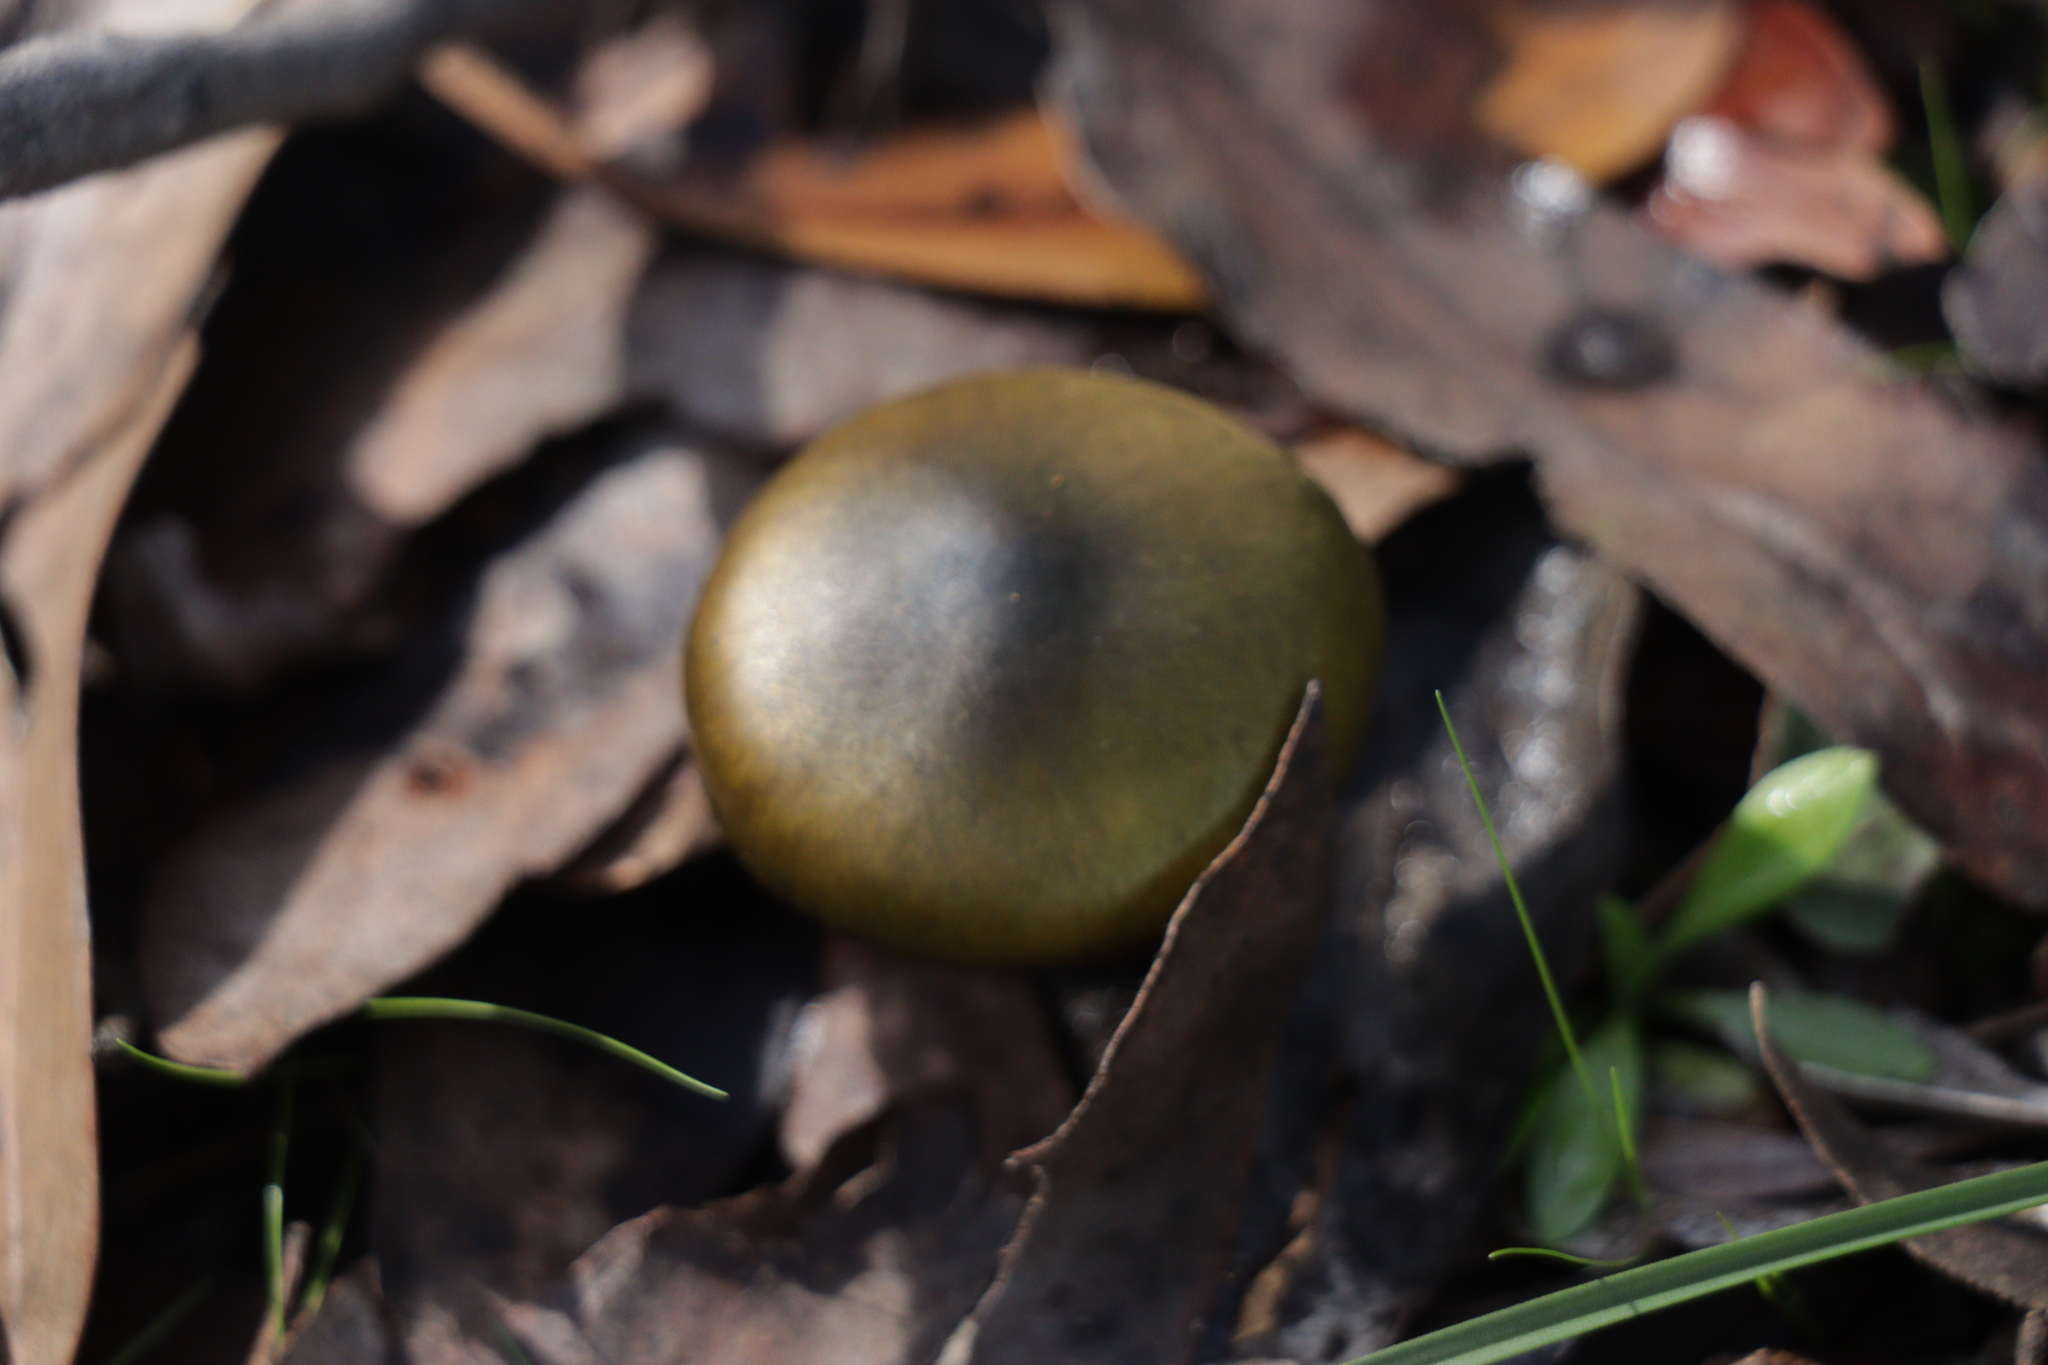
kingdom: Fungi
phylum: Basidiomycota
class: Agaricomycetes
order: Agaricales
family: Cortinariaceae
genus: Cortinarius
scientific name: Cortinarius austrovenetus
